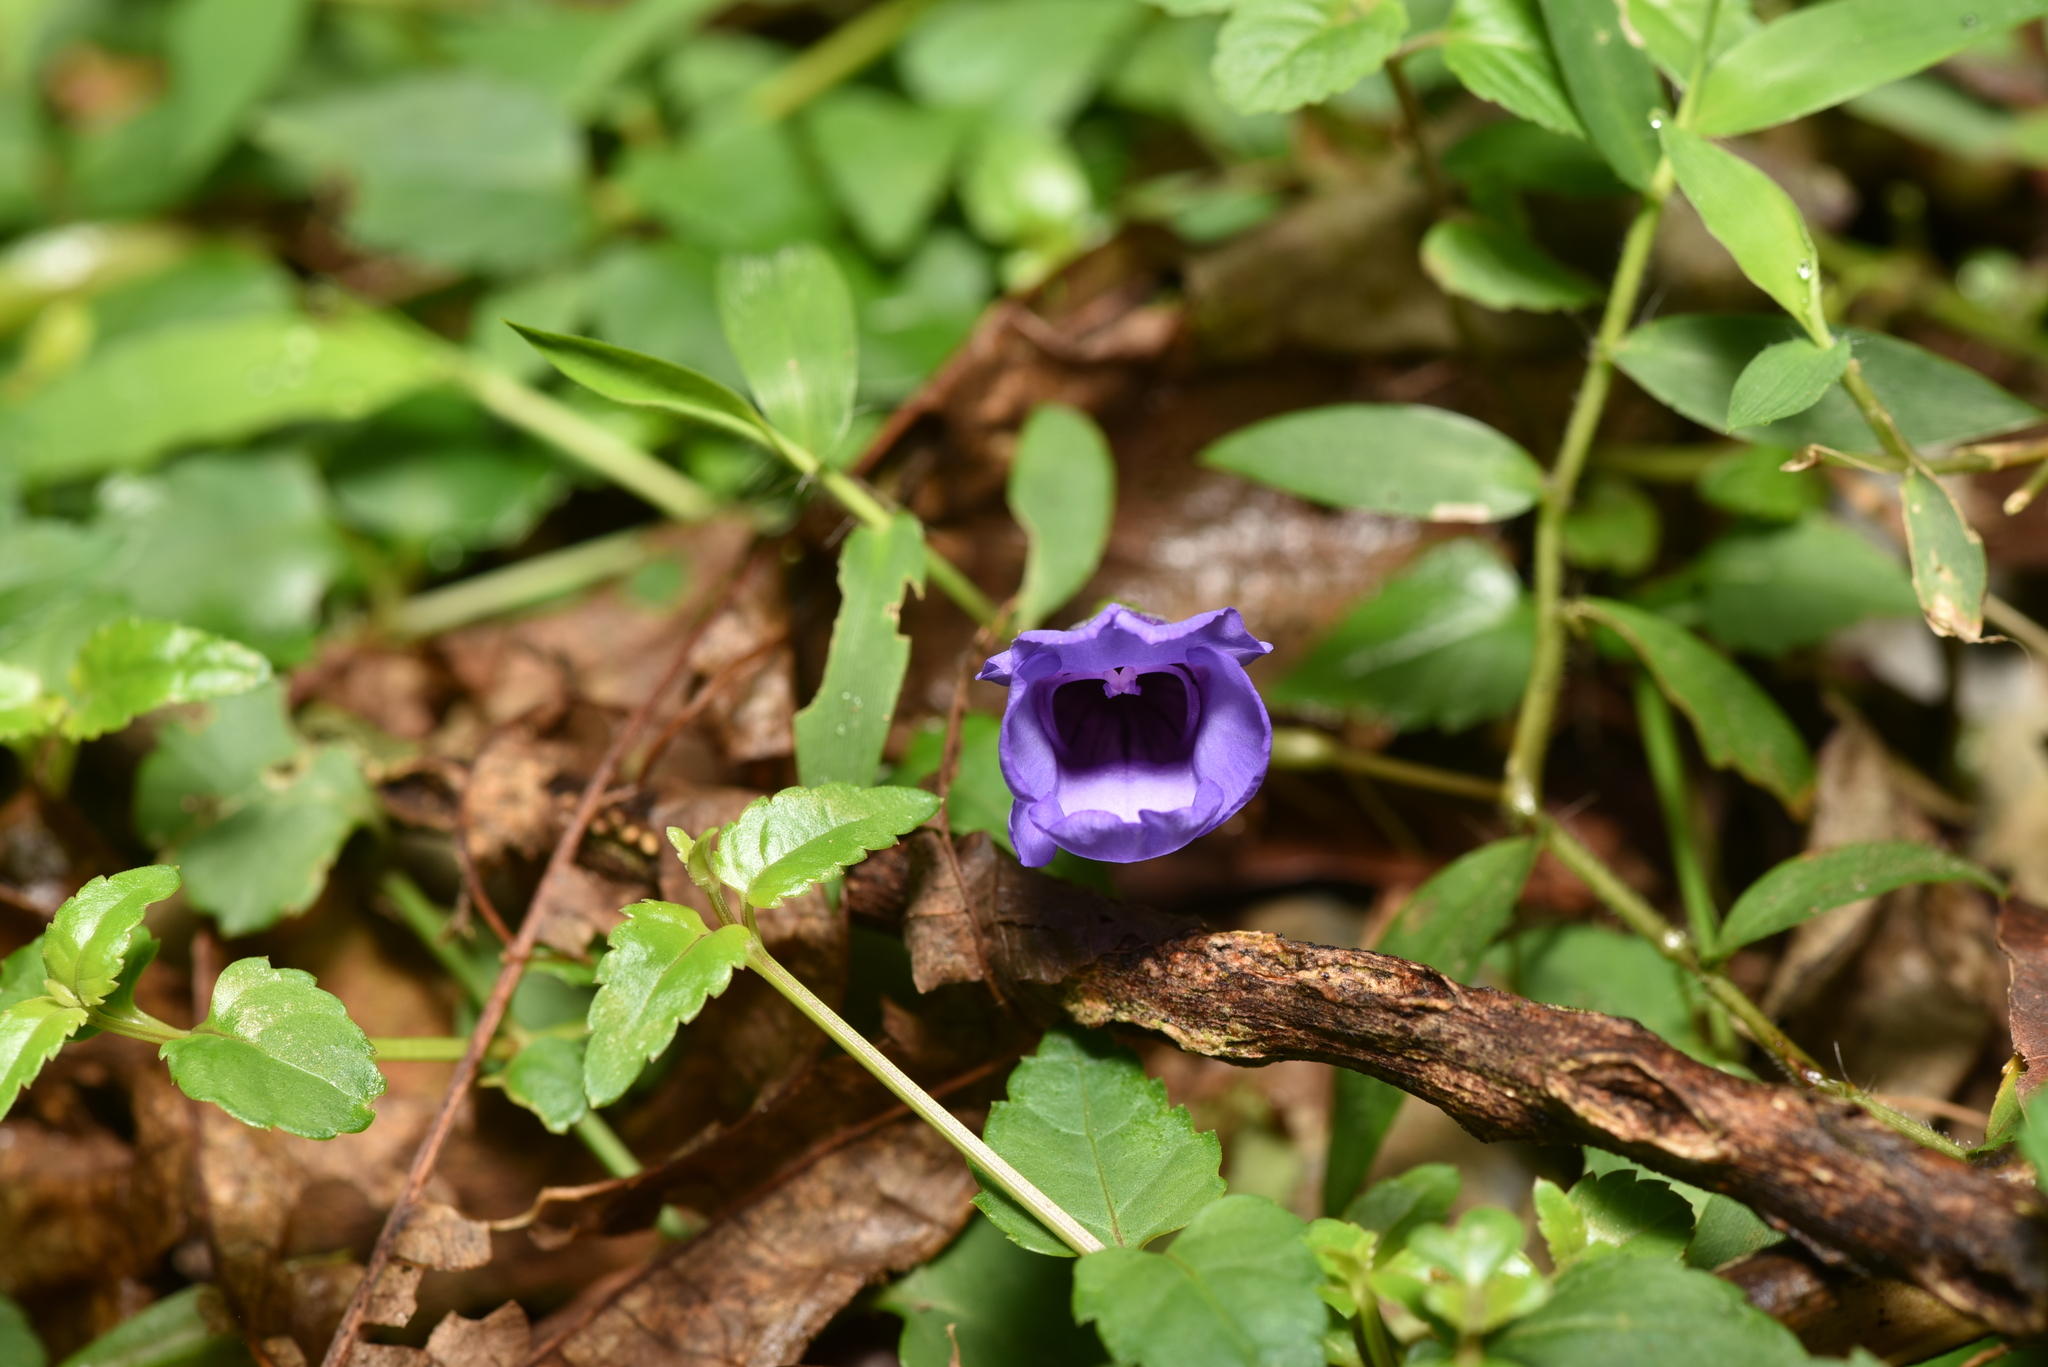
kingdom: Plantae
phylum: Tracheophyta
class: Magnoliopsida
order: Lamiales
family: Linderniaceae
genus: Torenia
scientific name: Torenia concolor
